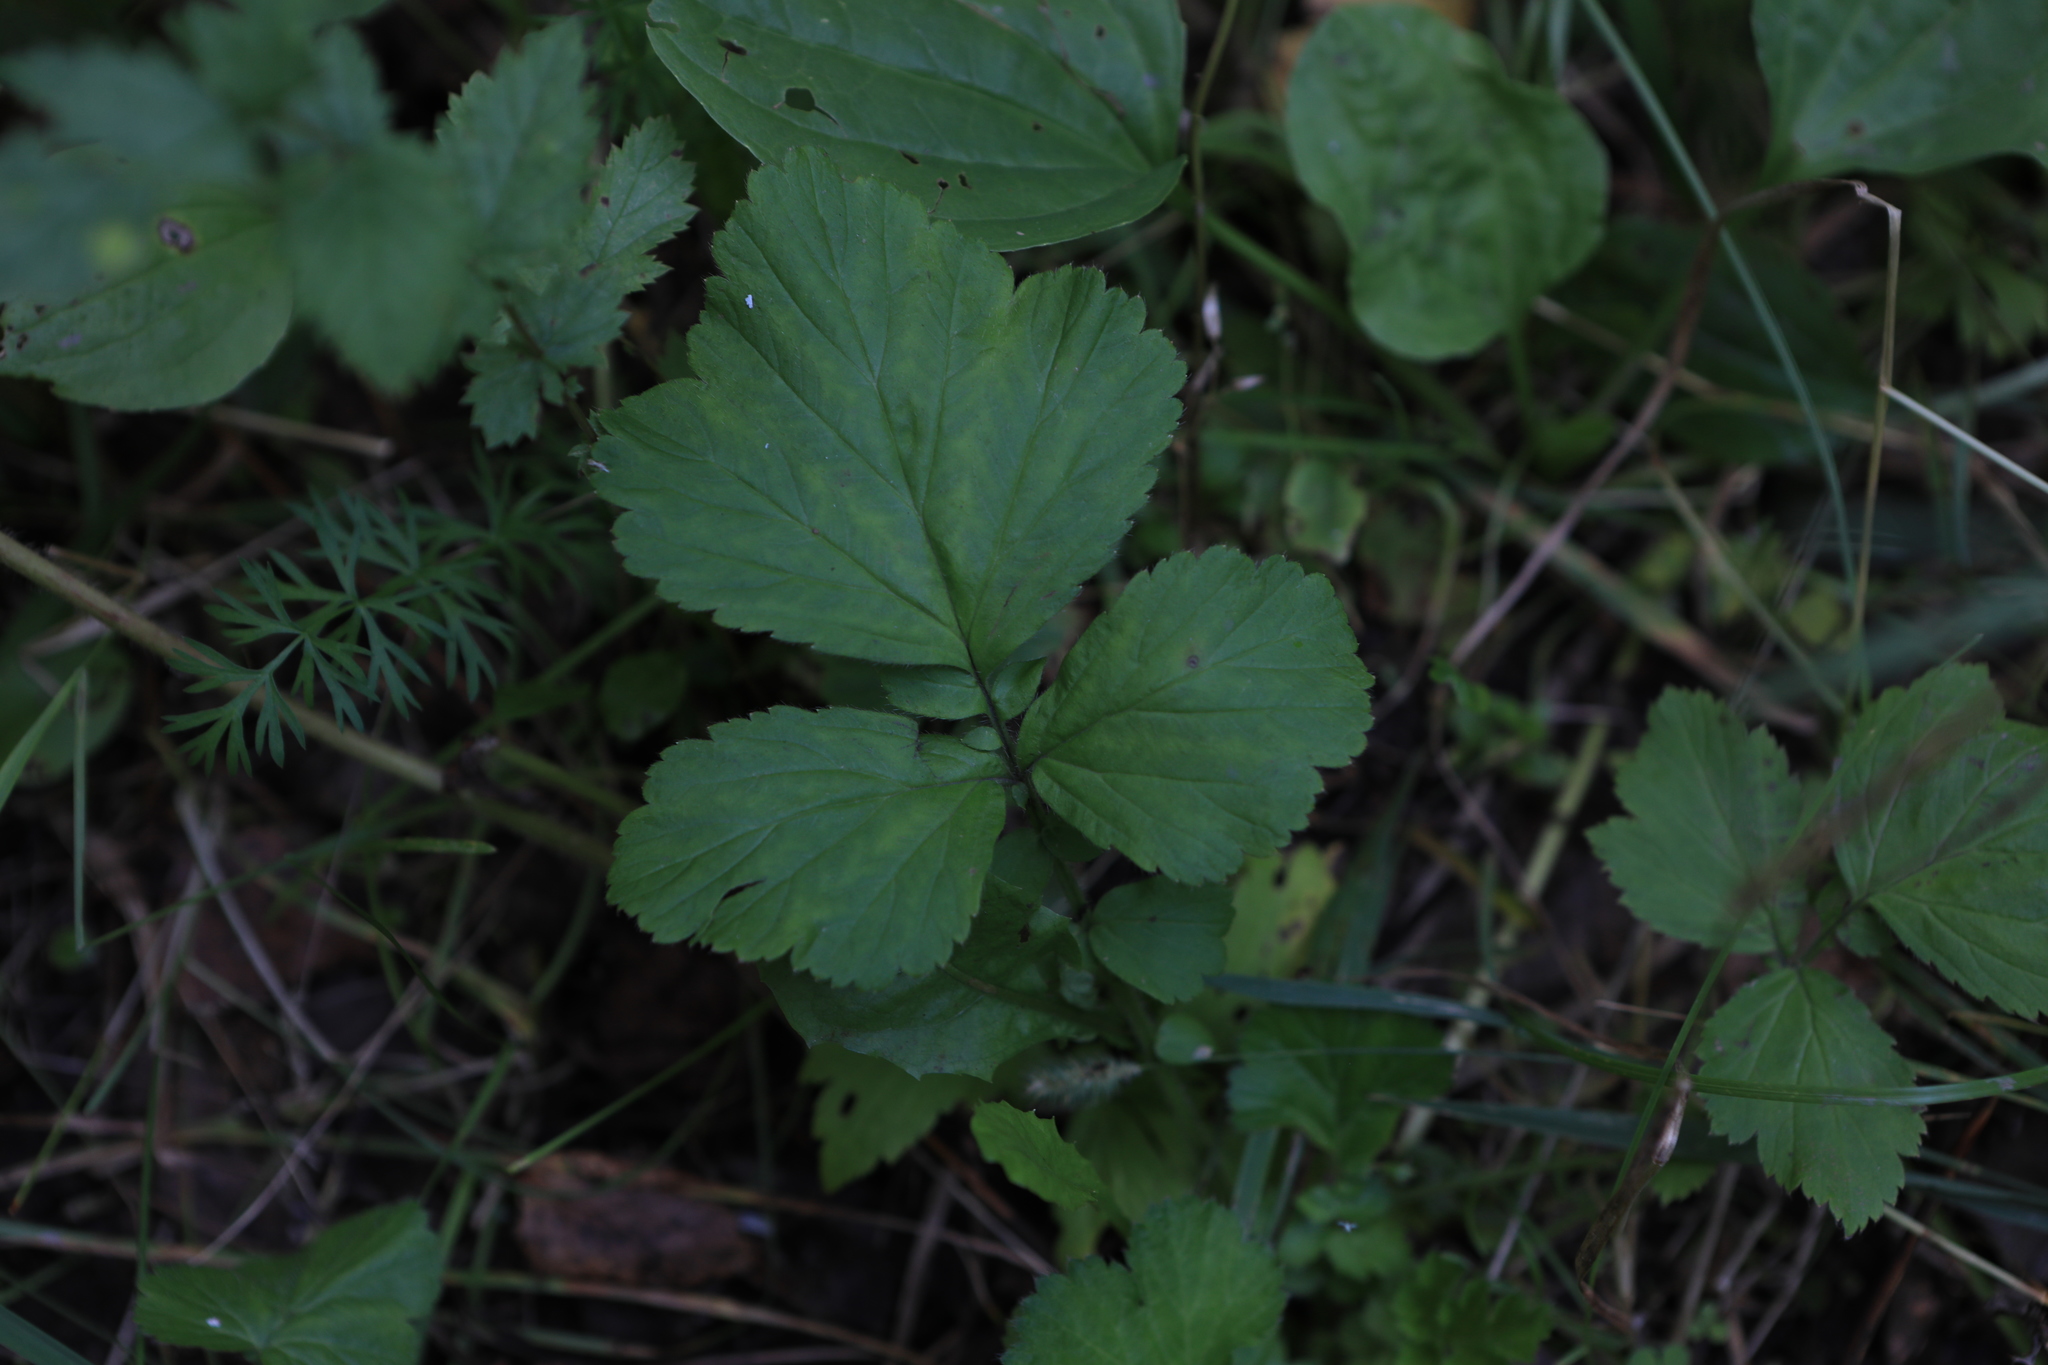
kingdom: Plantae
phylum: Tracheophyta
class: Magnoliopsida
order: Rosales
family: Rosaceae
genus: Geum
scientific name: Geum
